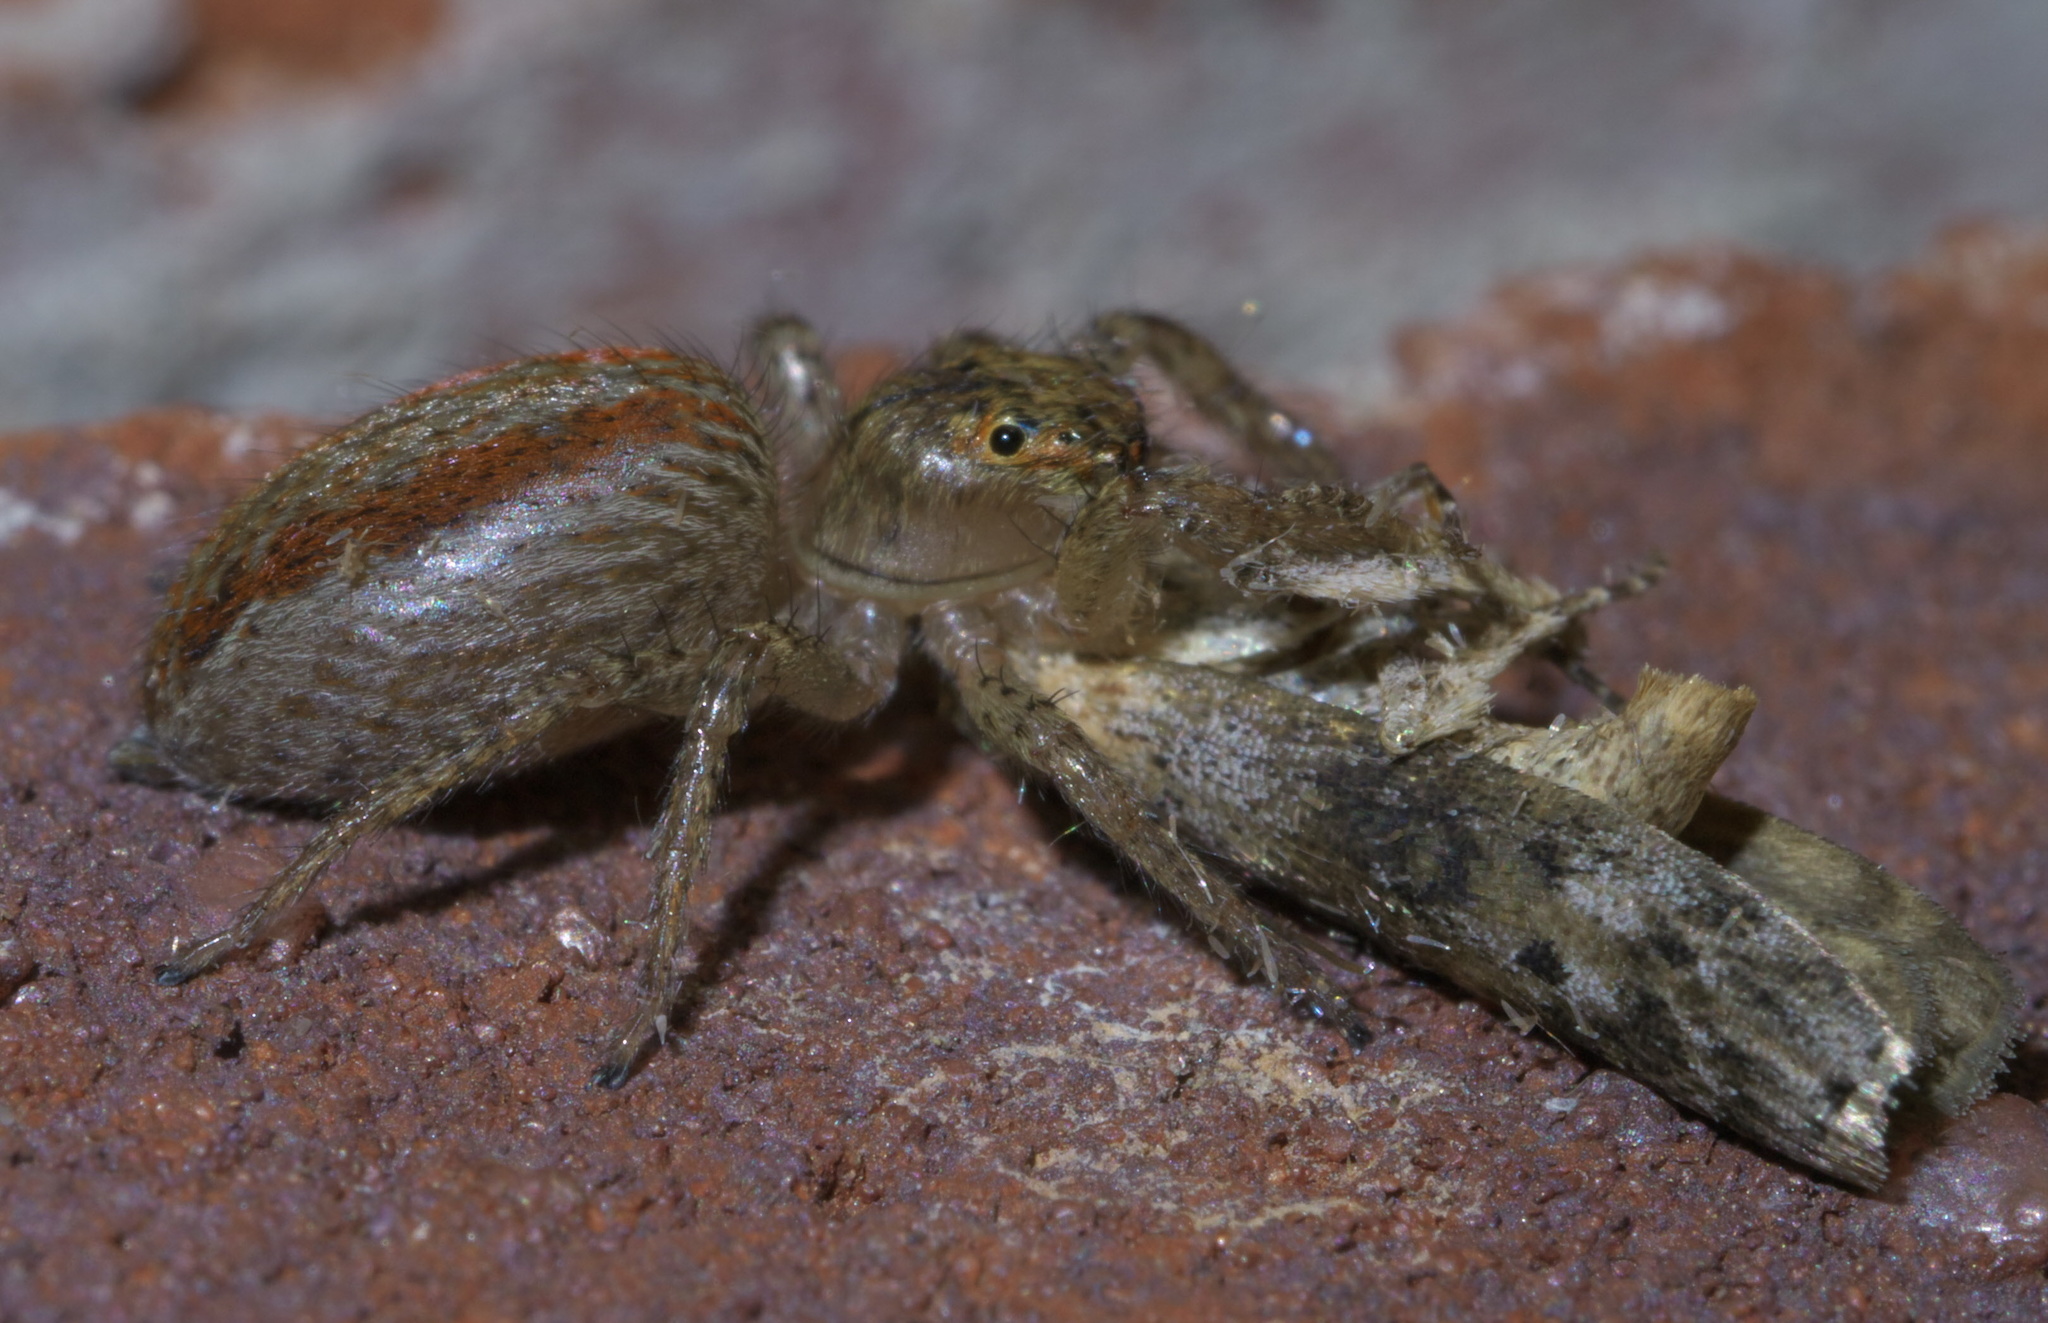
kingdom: Animalia
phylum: Arthropoda
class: Arachnida
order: Araneae
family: Salticidae
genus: Maevia
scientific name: Maevia inclemens
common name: Dimorphic jumper
